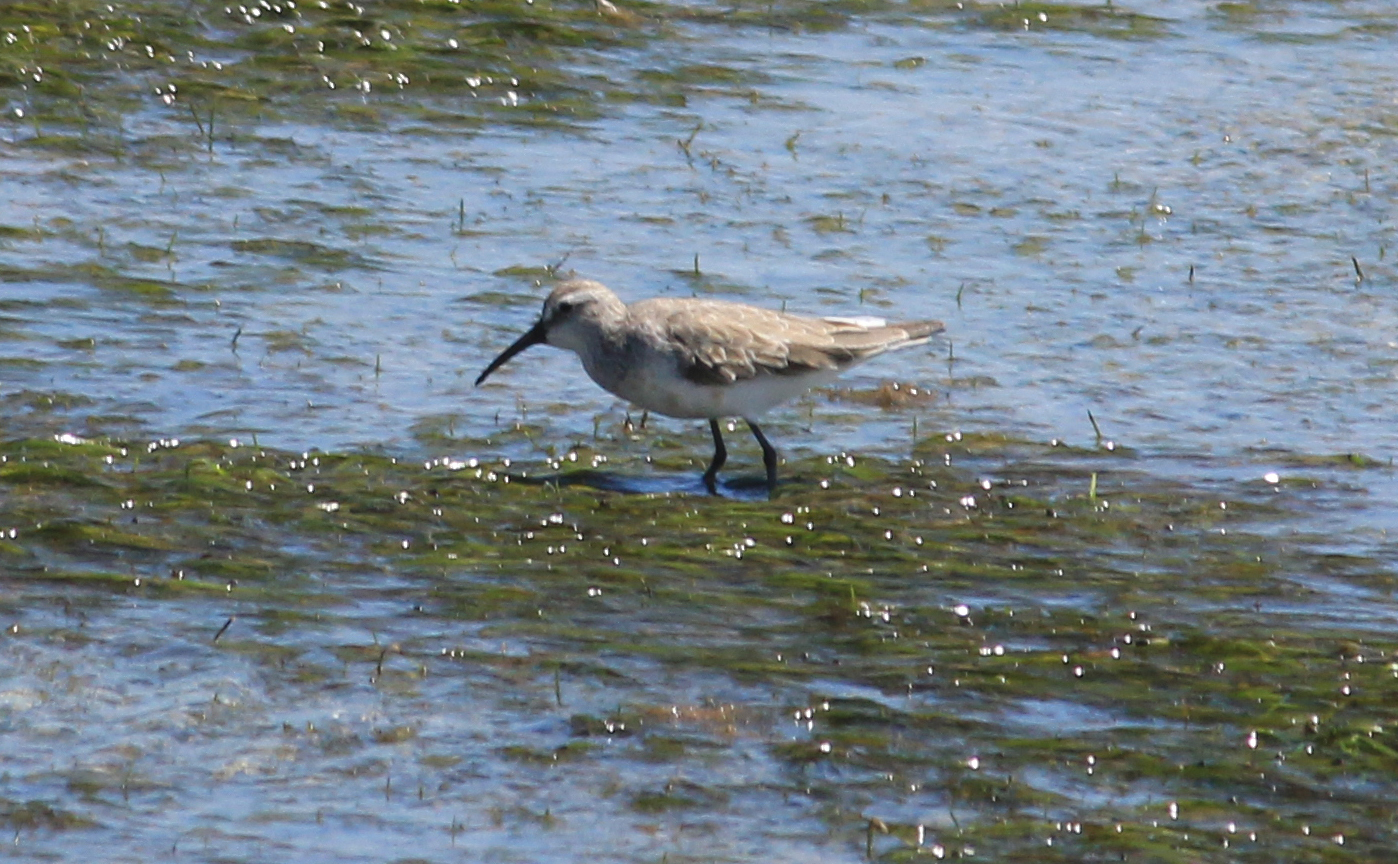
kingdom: Animalia
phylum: Chordata
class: Aves
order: Charadriiformes
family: Scolopacidae
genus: Calidris
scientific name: Calidris ferruginea
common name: Curlew sandpiper
